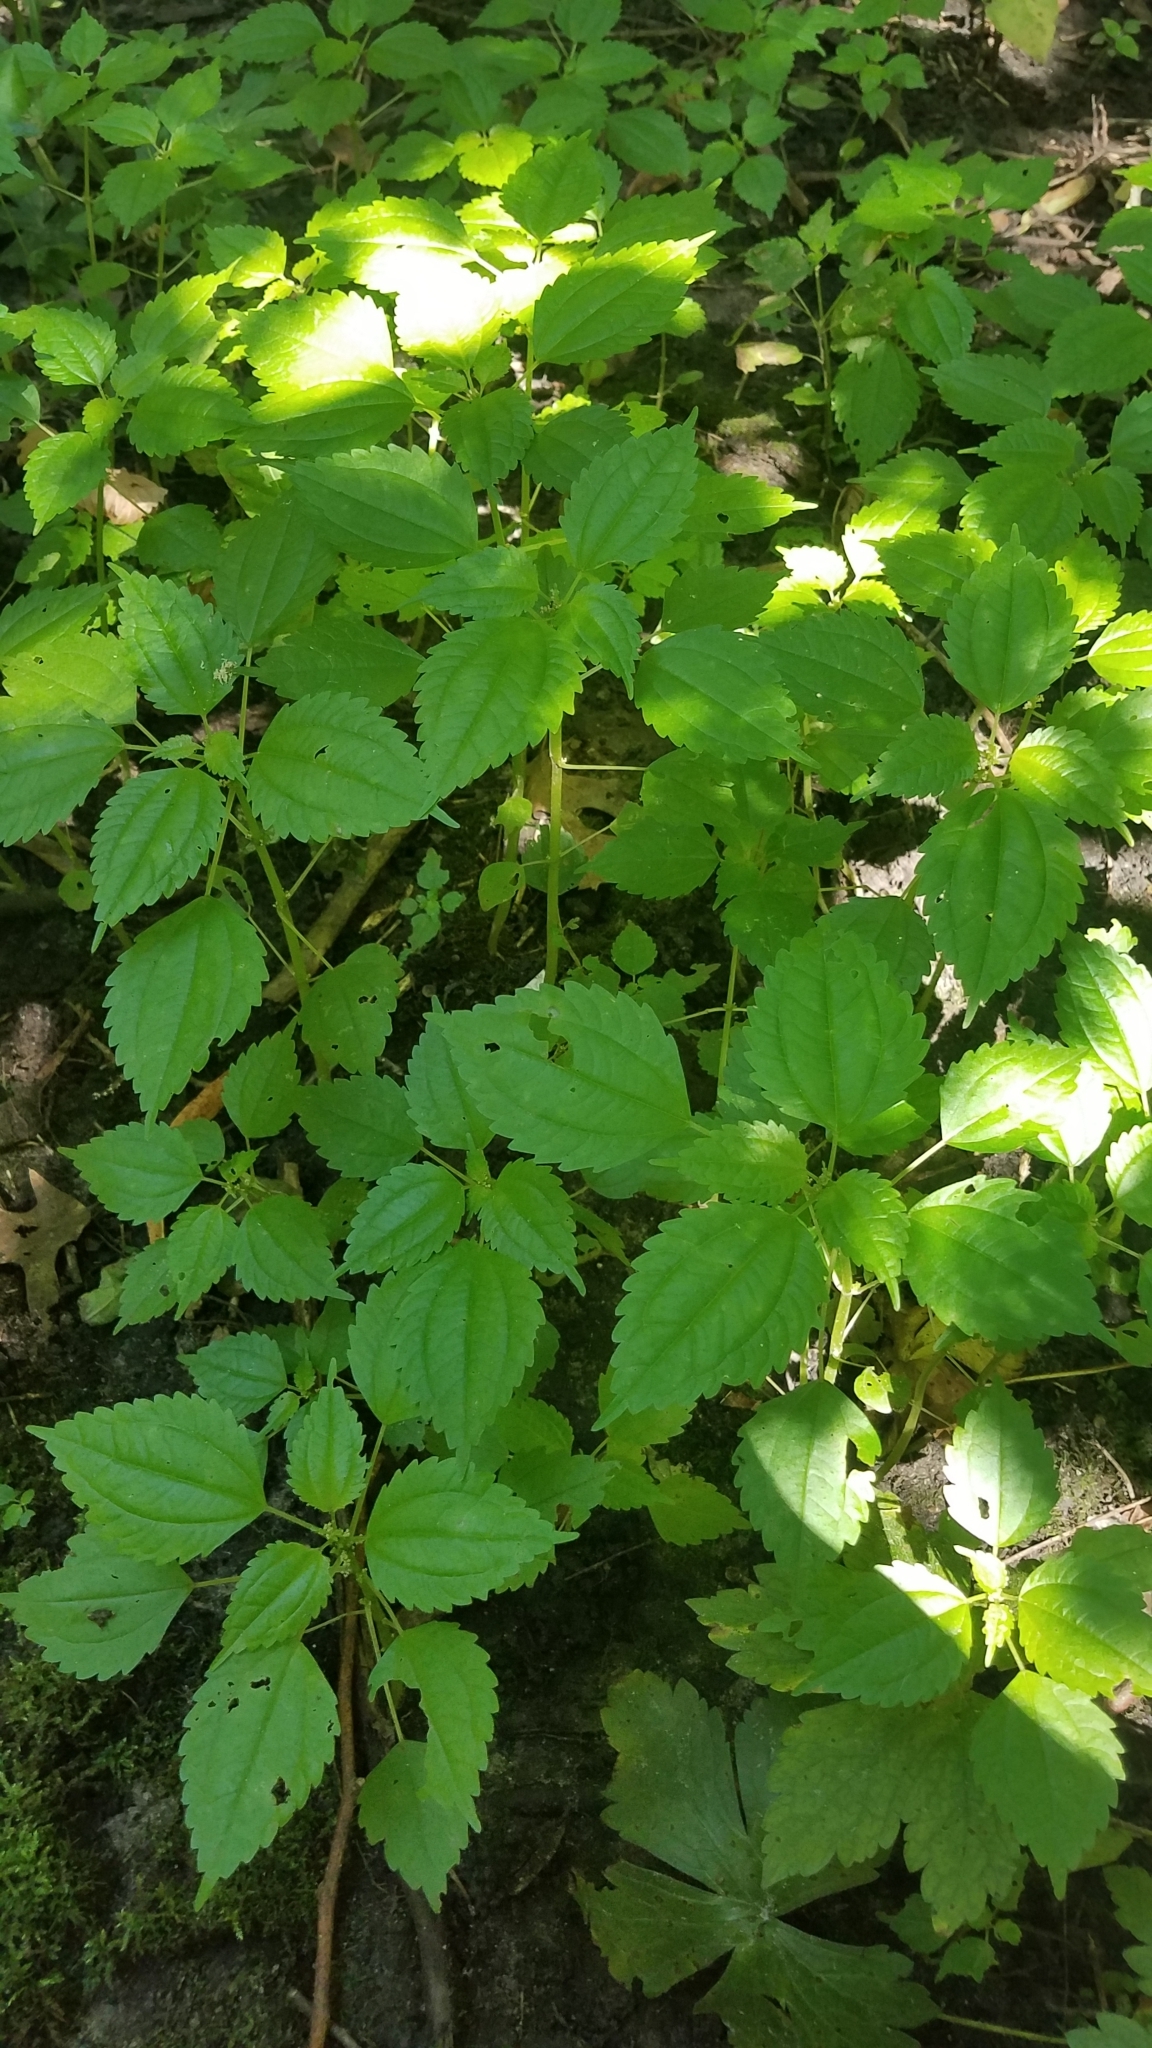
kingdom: Plantae
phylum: Tracheophyta
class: Magnoliopsida
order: Rosales
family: Urticaceae
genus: Pilea
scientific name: Pilea pumila
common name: Clearweed
